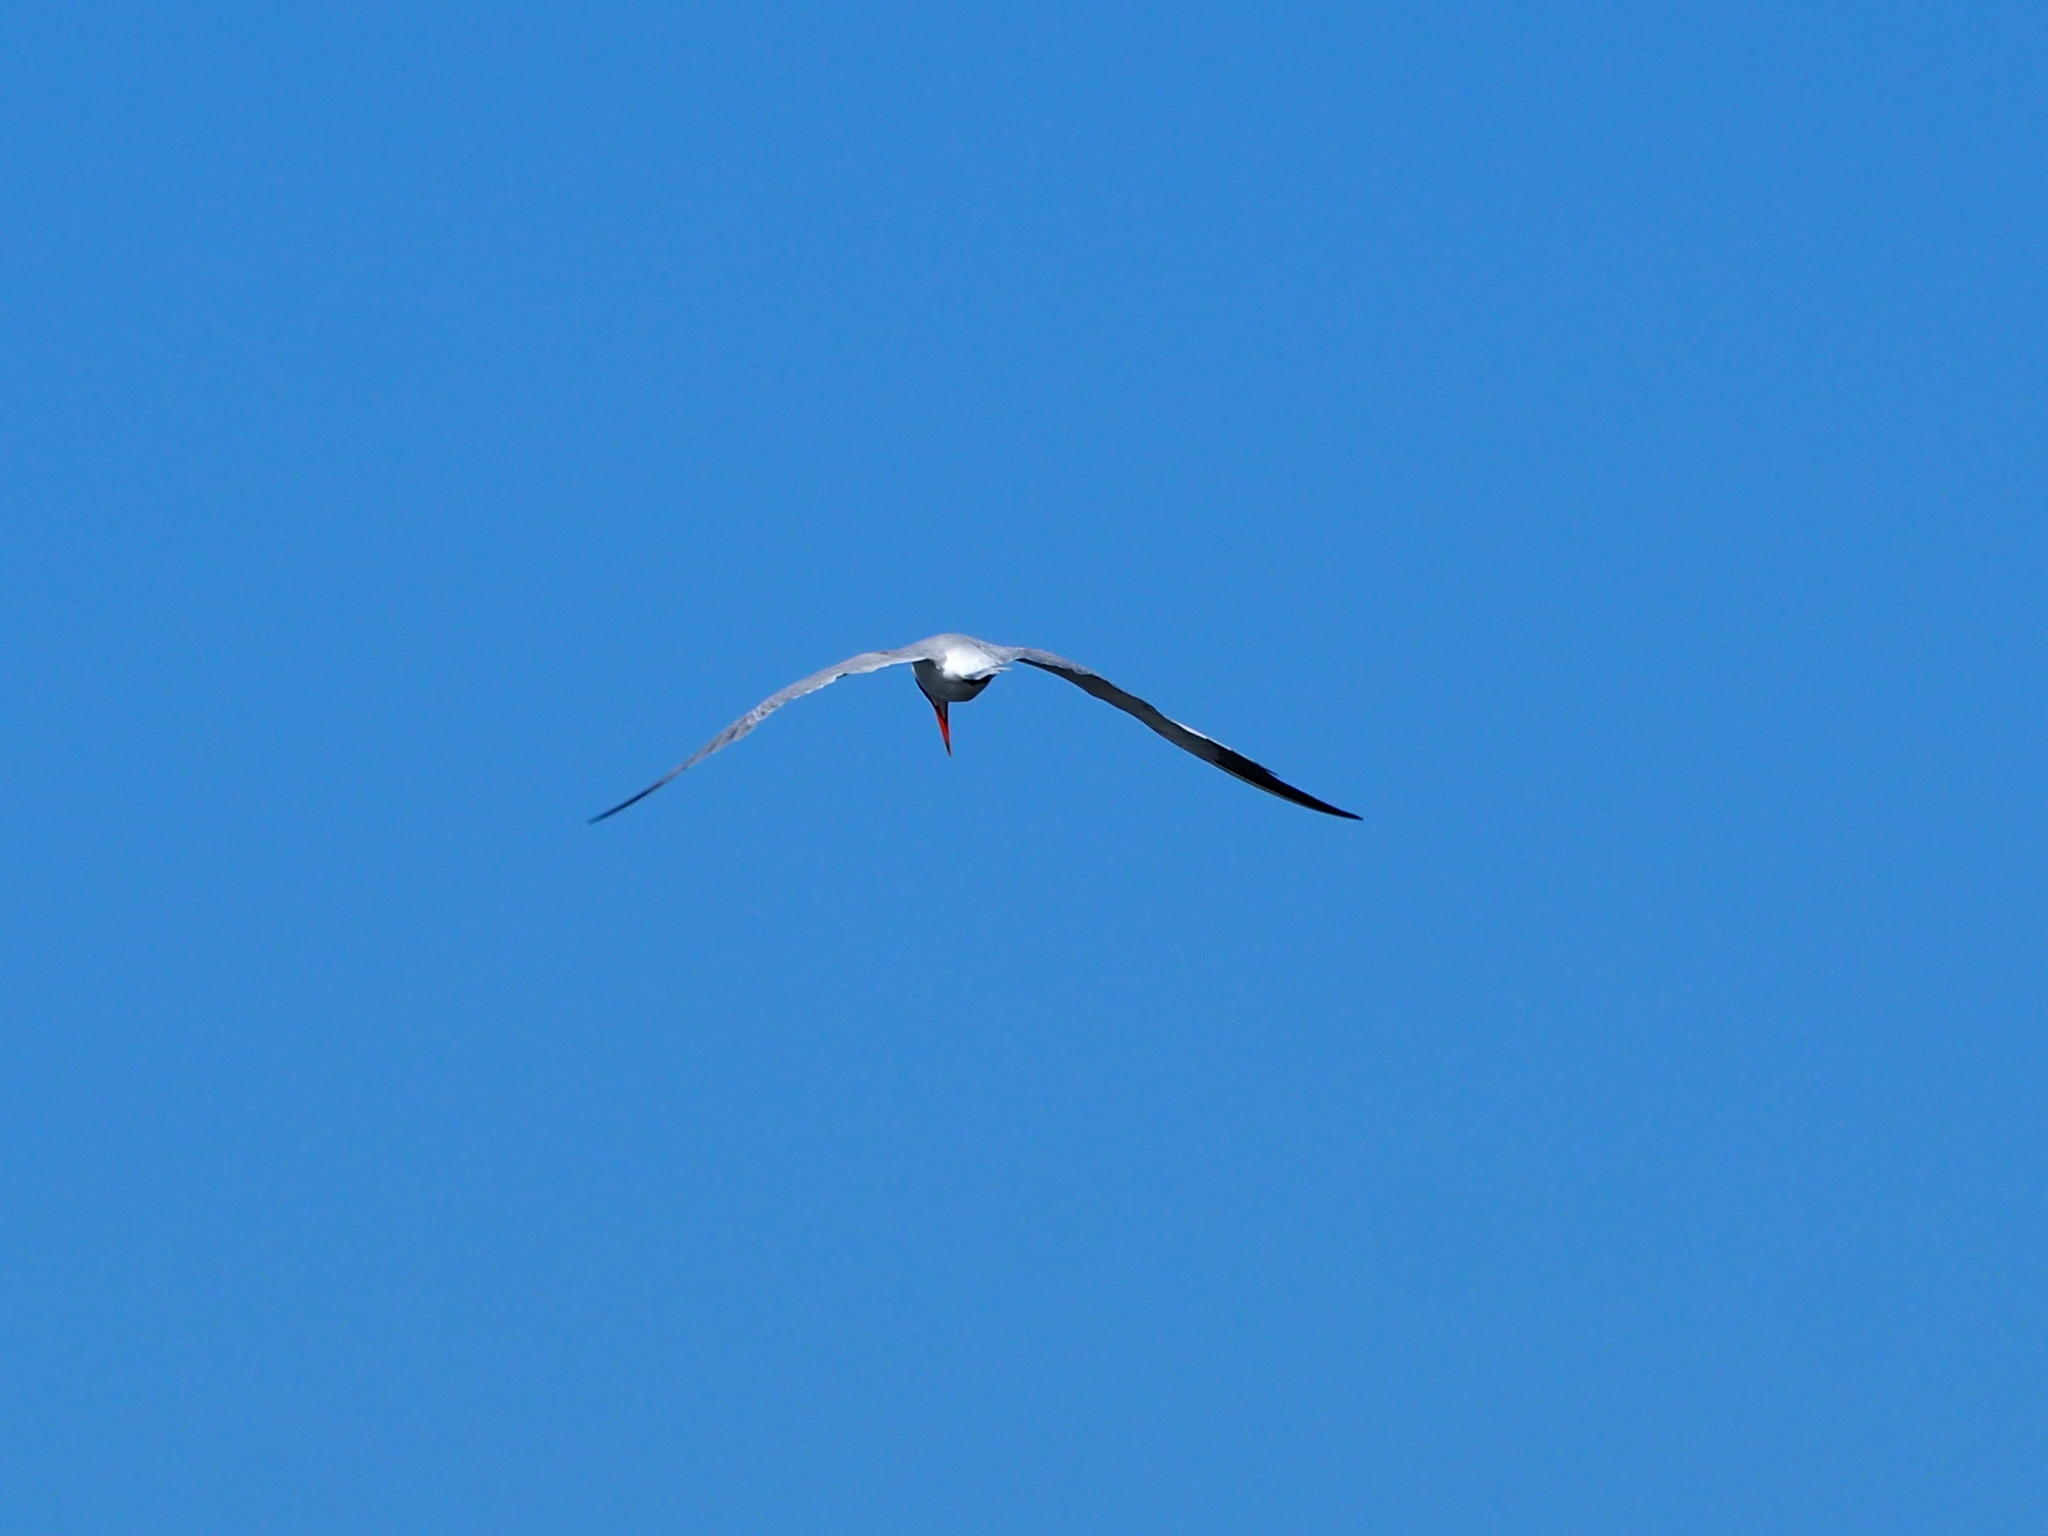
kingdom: Animalia
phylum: Chordata
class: Aves
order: Charadriiformes
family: Laridae
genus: Hydroprogne
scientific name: Hydroprogne caspia
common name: Caspian tern
